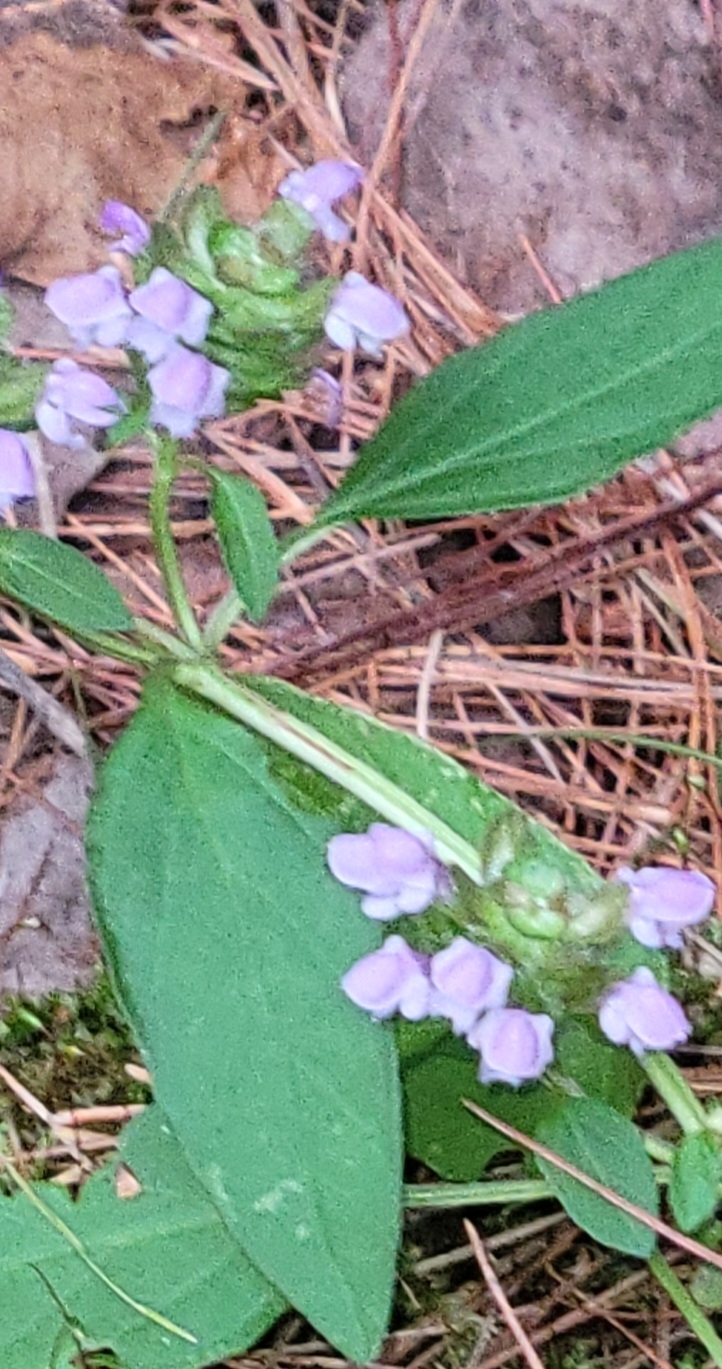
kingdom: Plantae
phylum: Tracheophyta
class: Magnoliopsida
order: Lamiales
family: Lamiaceae
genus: Prunella
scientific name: Prunella vulgaris
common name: Heal-all
